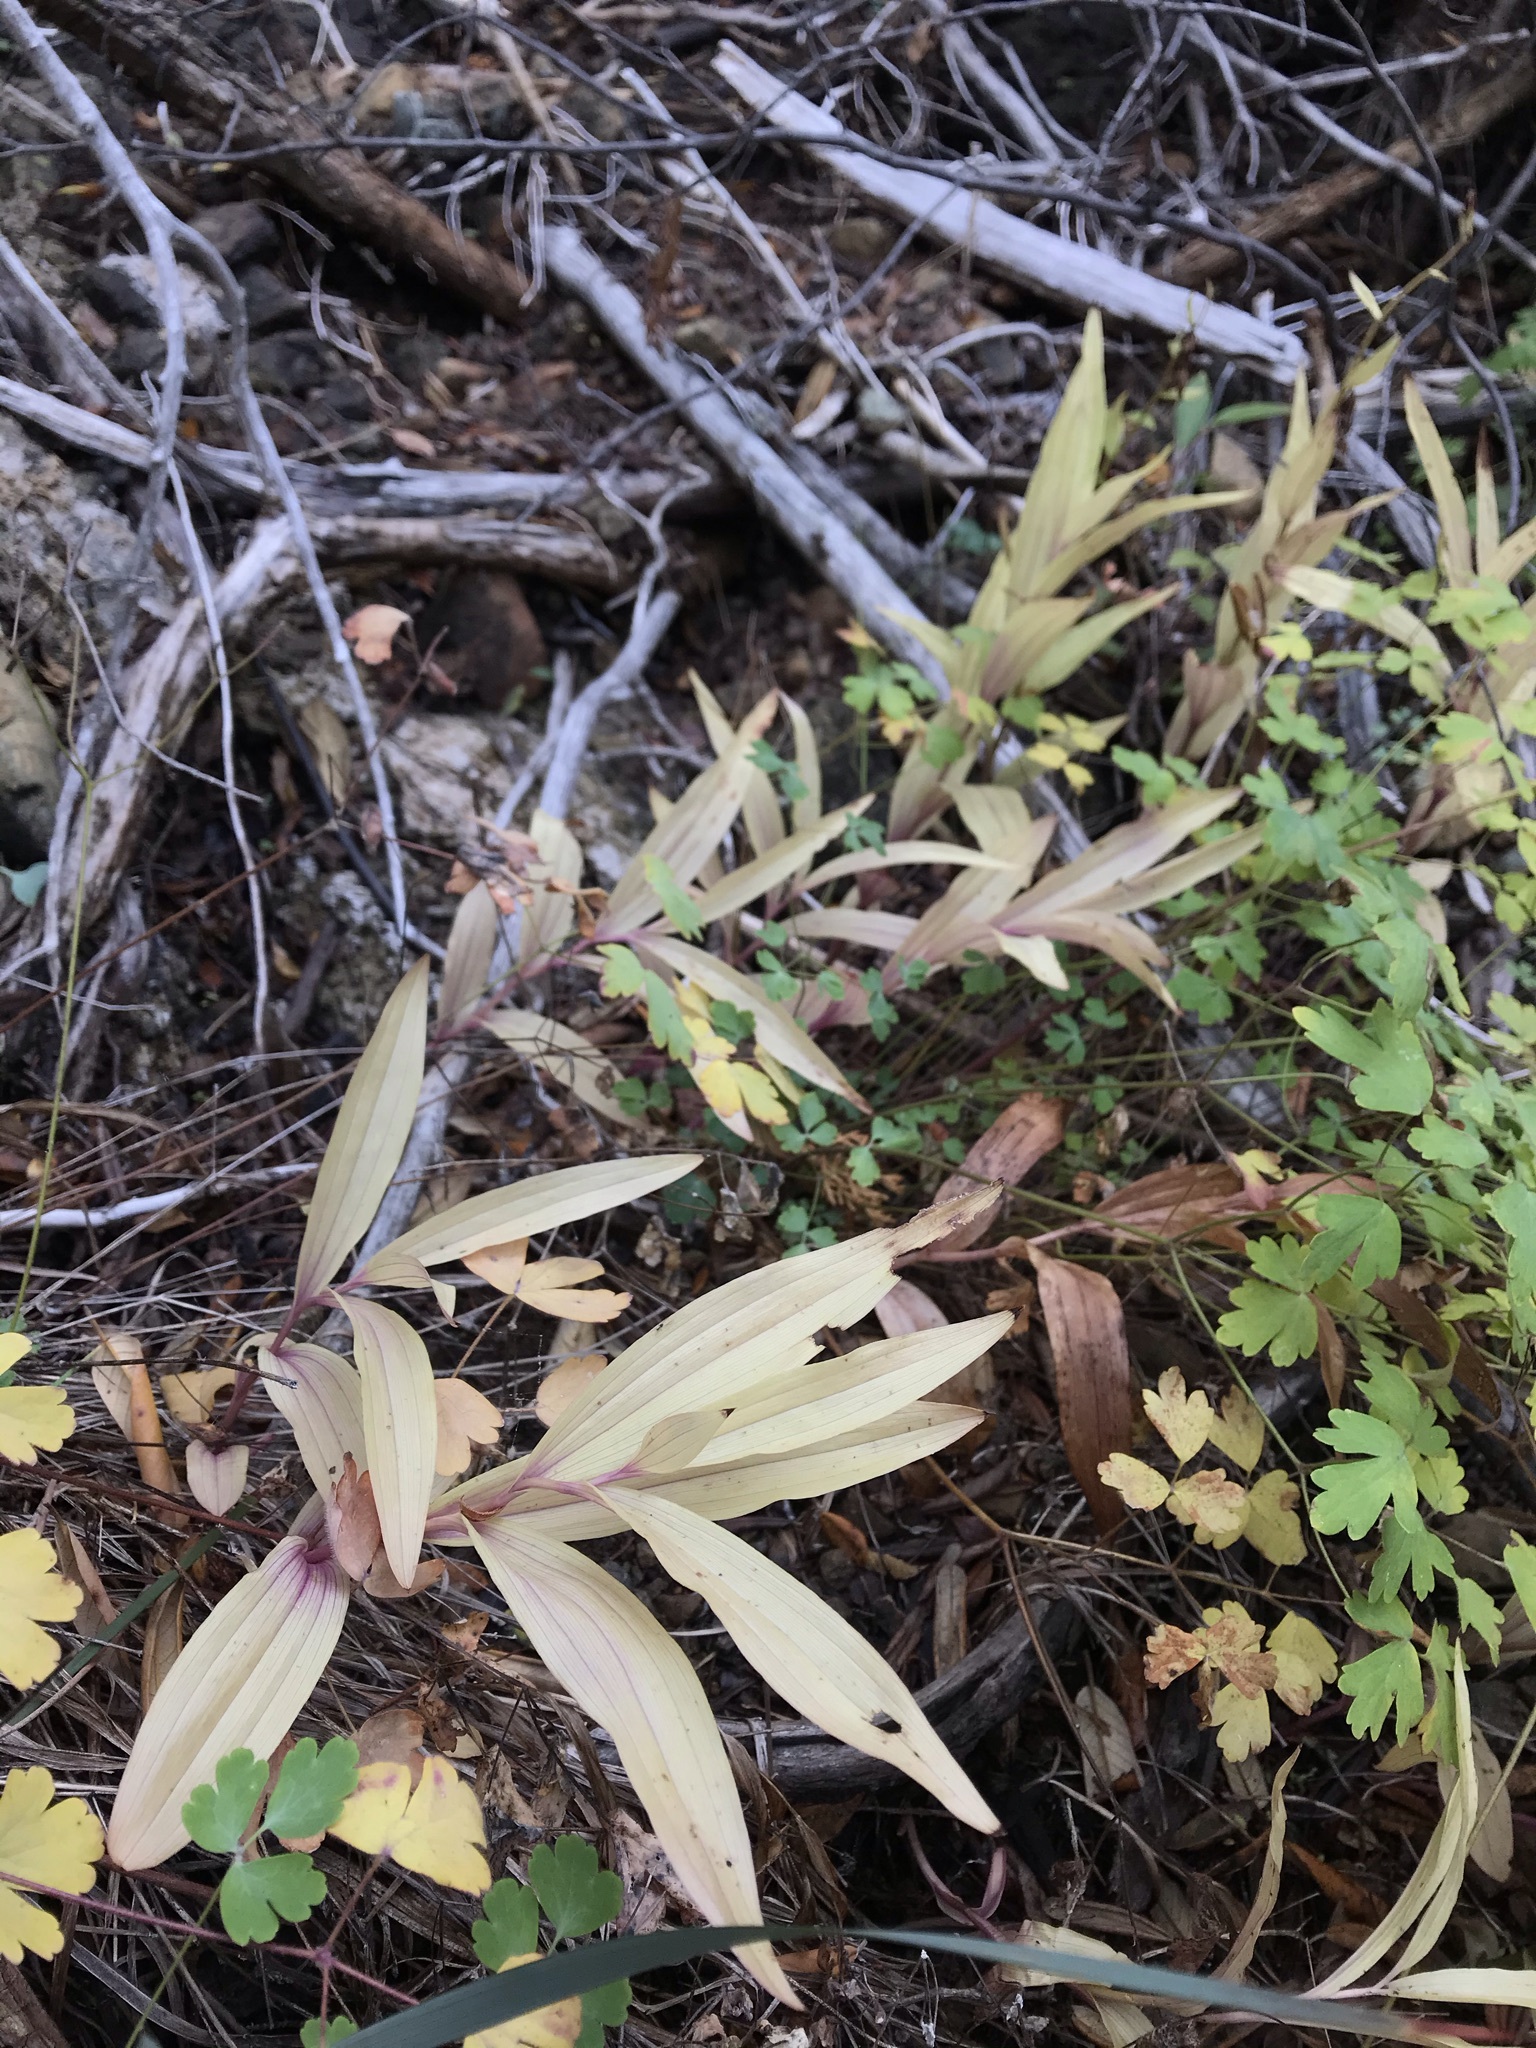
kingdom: Plantae
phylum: Tracheophyta
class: Liliopsida
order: Asparagales
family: Orchidaceae
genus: Epipactis
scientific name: Epipactis gigantea
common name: Chatterbox
